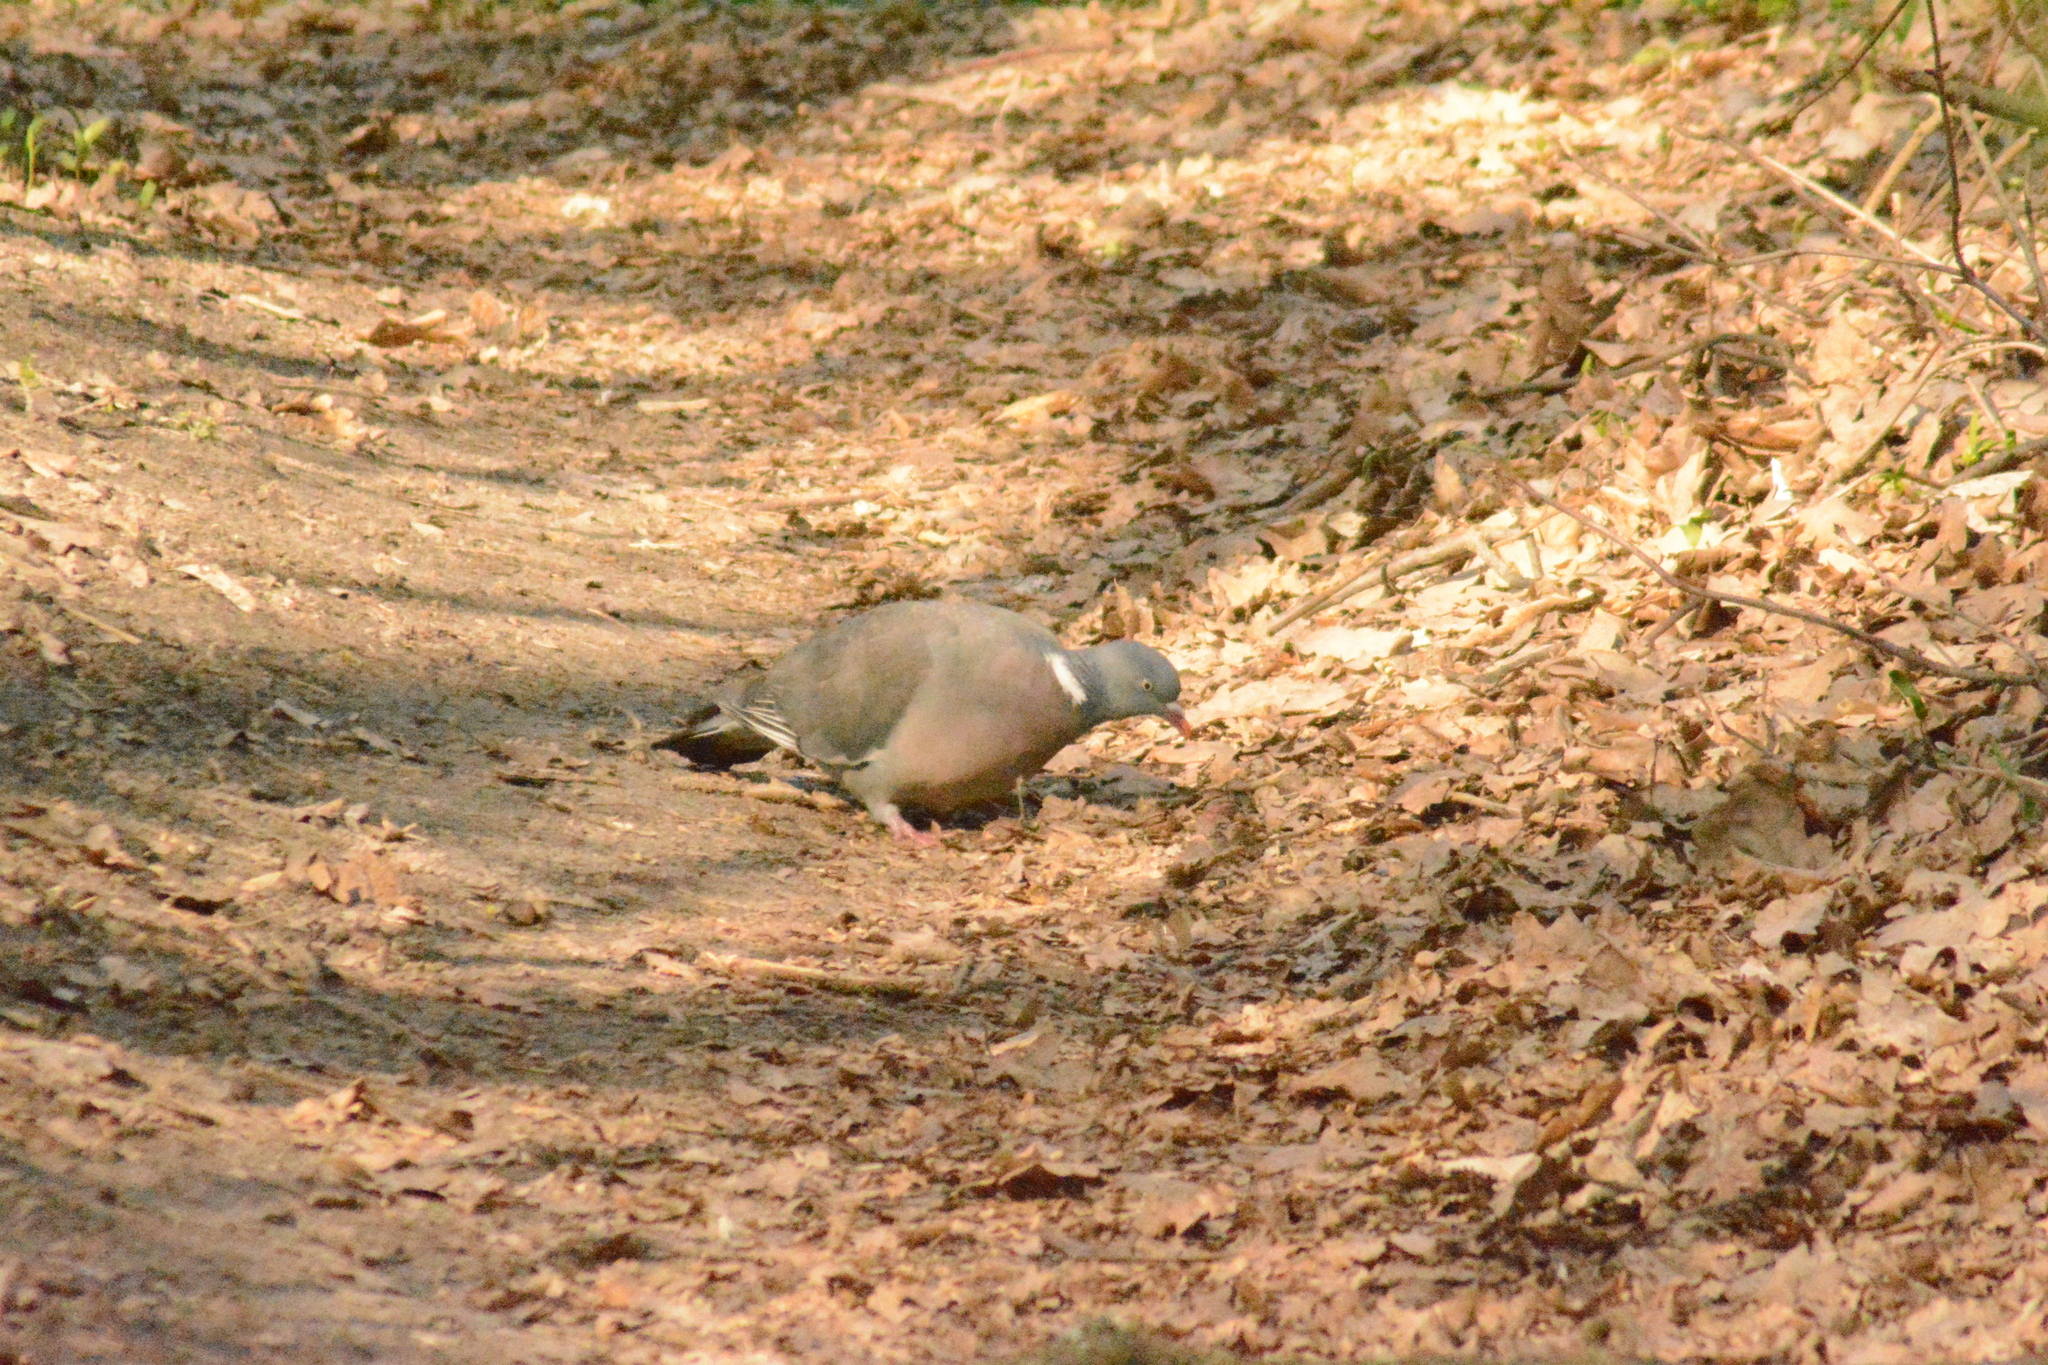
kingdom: Animalia
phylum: Chordata
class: Aves
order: Columbiformes
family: Columbidae
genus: Columba
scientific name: Columba palumbus
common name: Common wood pigeon
